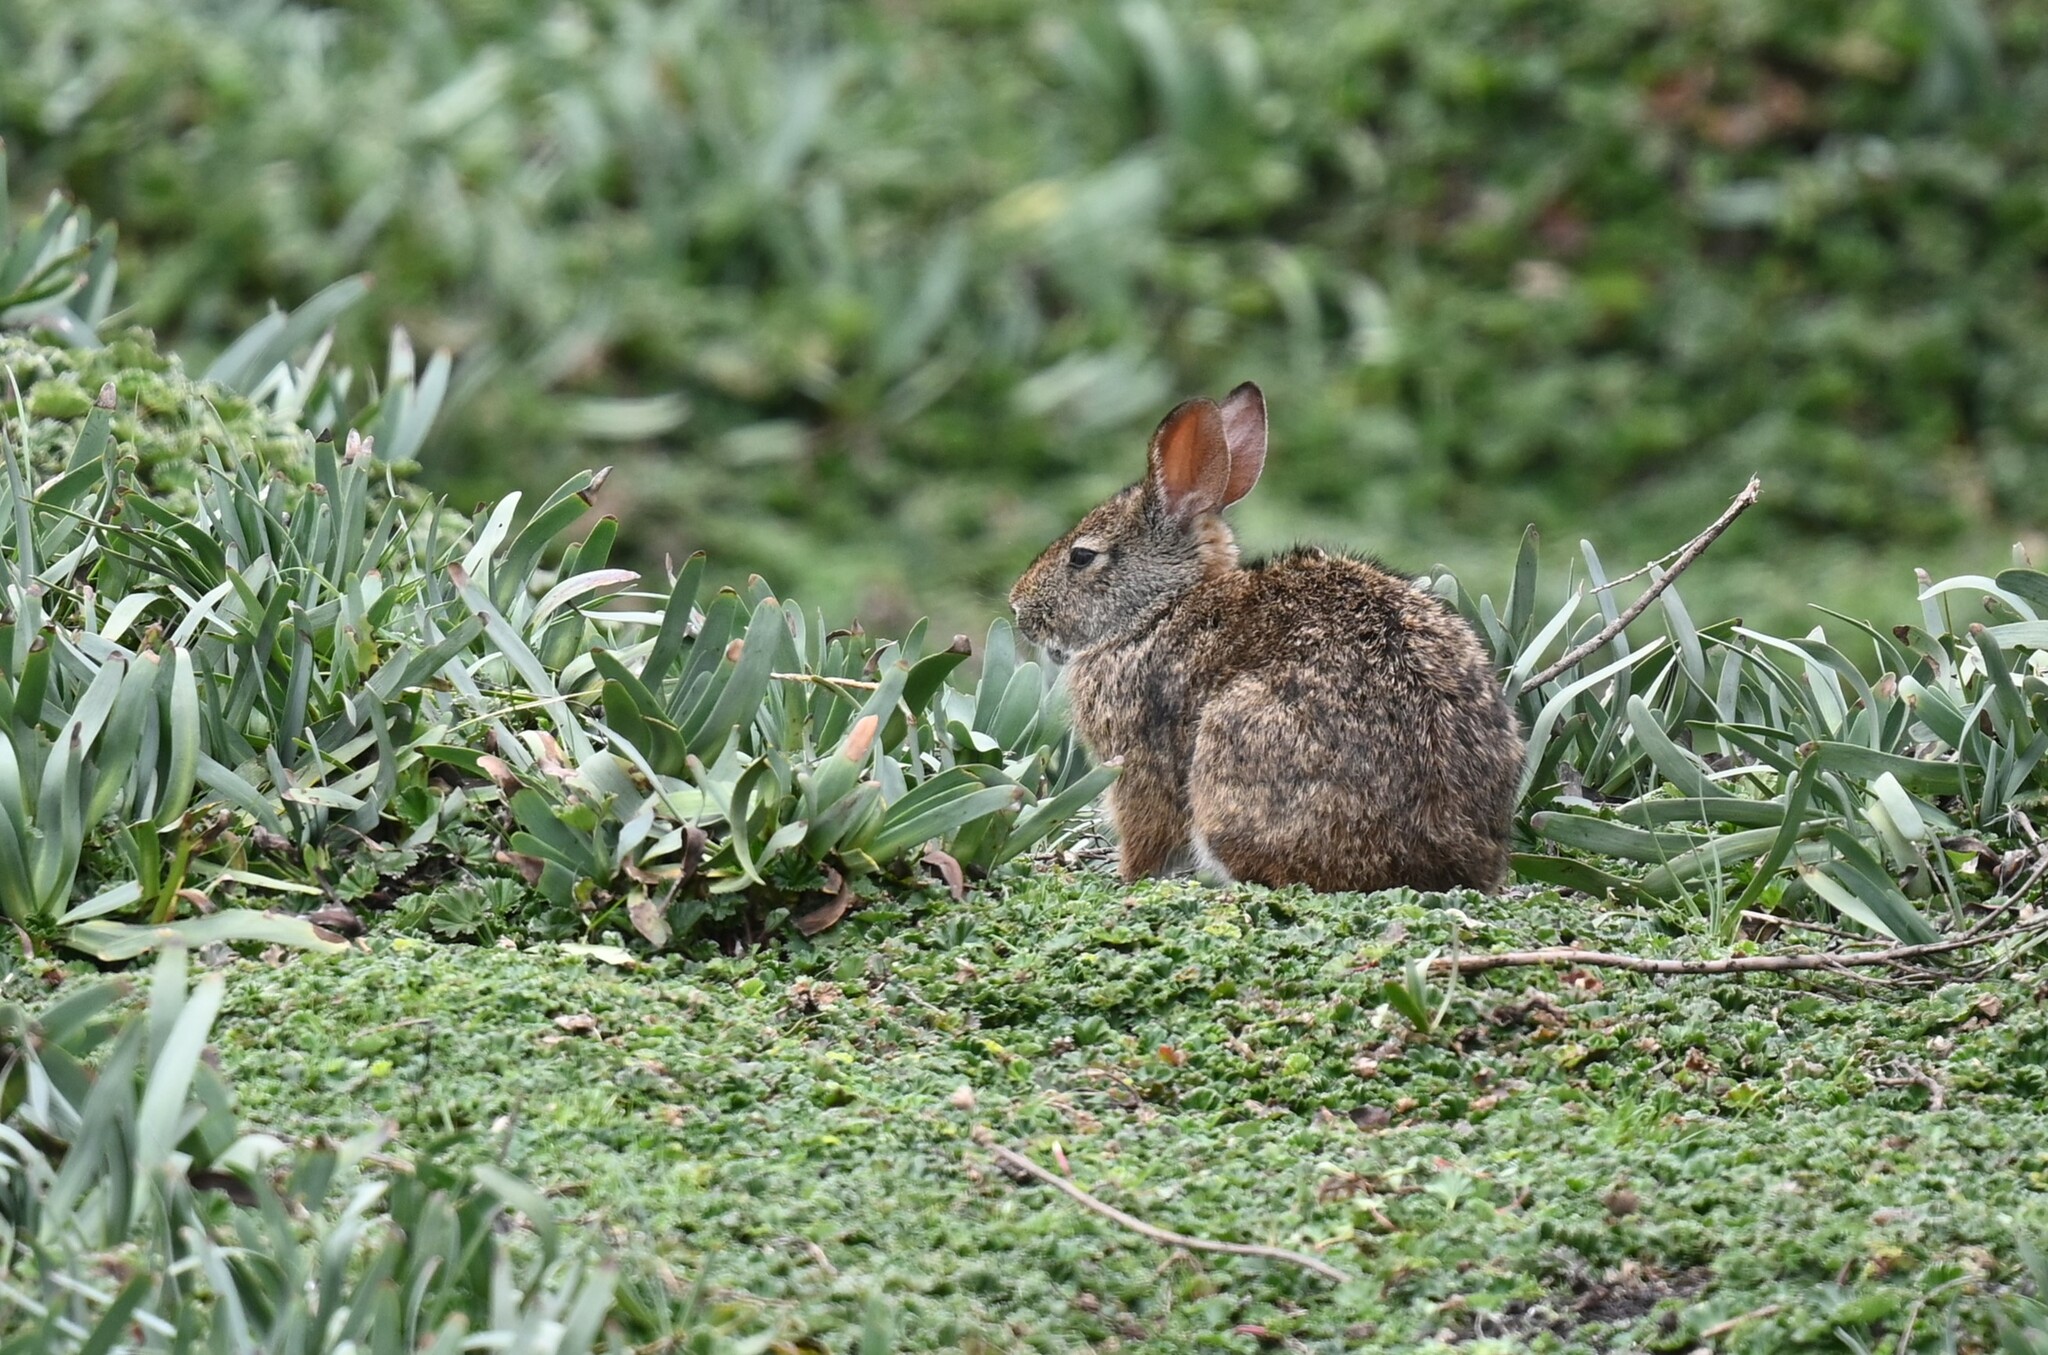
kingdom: Animalia
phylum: Chordata
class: Mammalia
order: Lagomorpha
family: Leporidae
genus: Sylvilagus
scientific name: Sylvilagus andinus
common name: Andean cottontail
